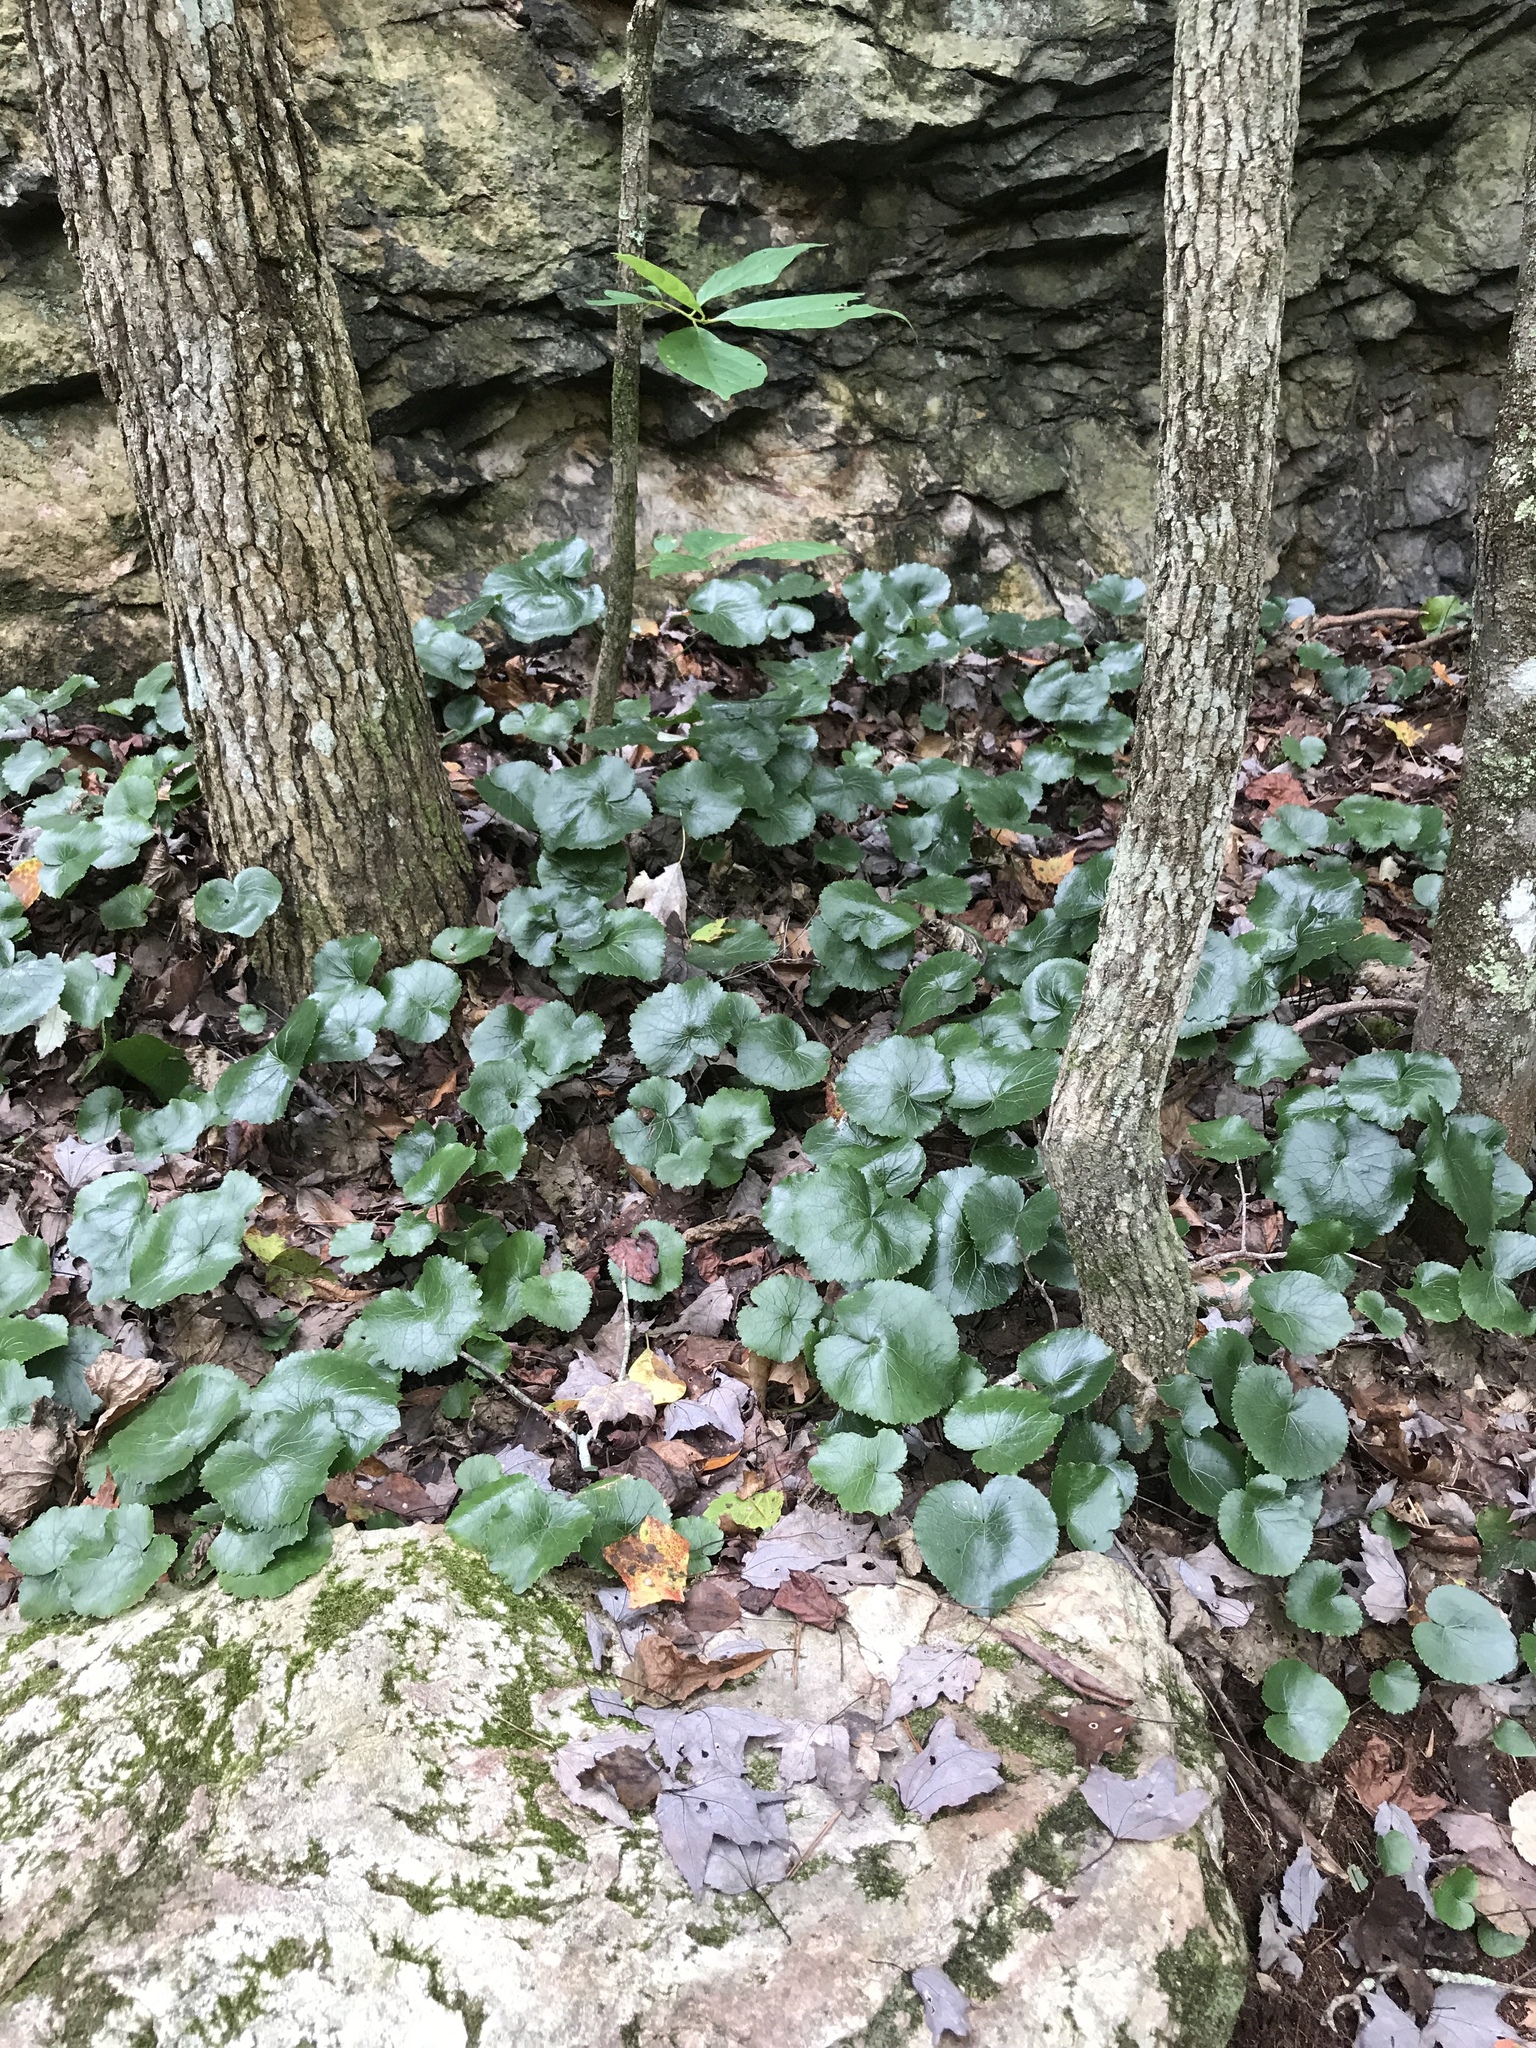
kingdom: Plantae
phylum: Tracheophyta
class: Magnoliopsida
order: Ericales
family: Diapensiaceae
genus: Galax
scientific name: Galax urceolata
